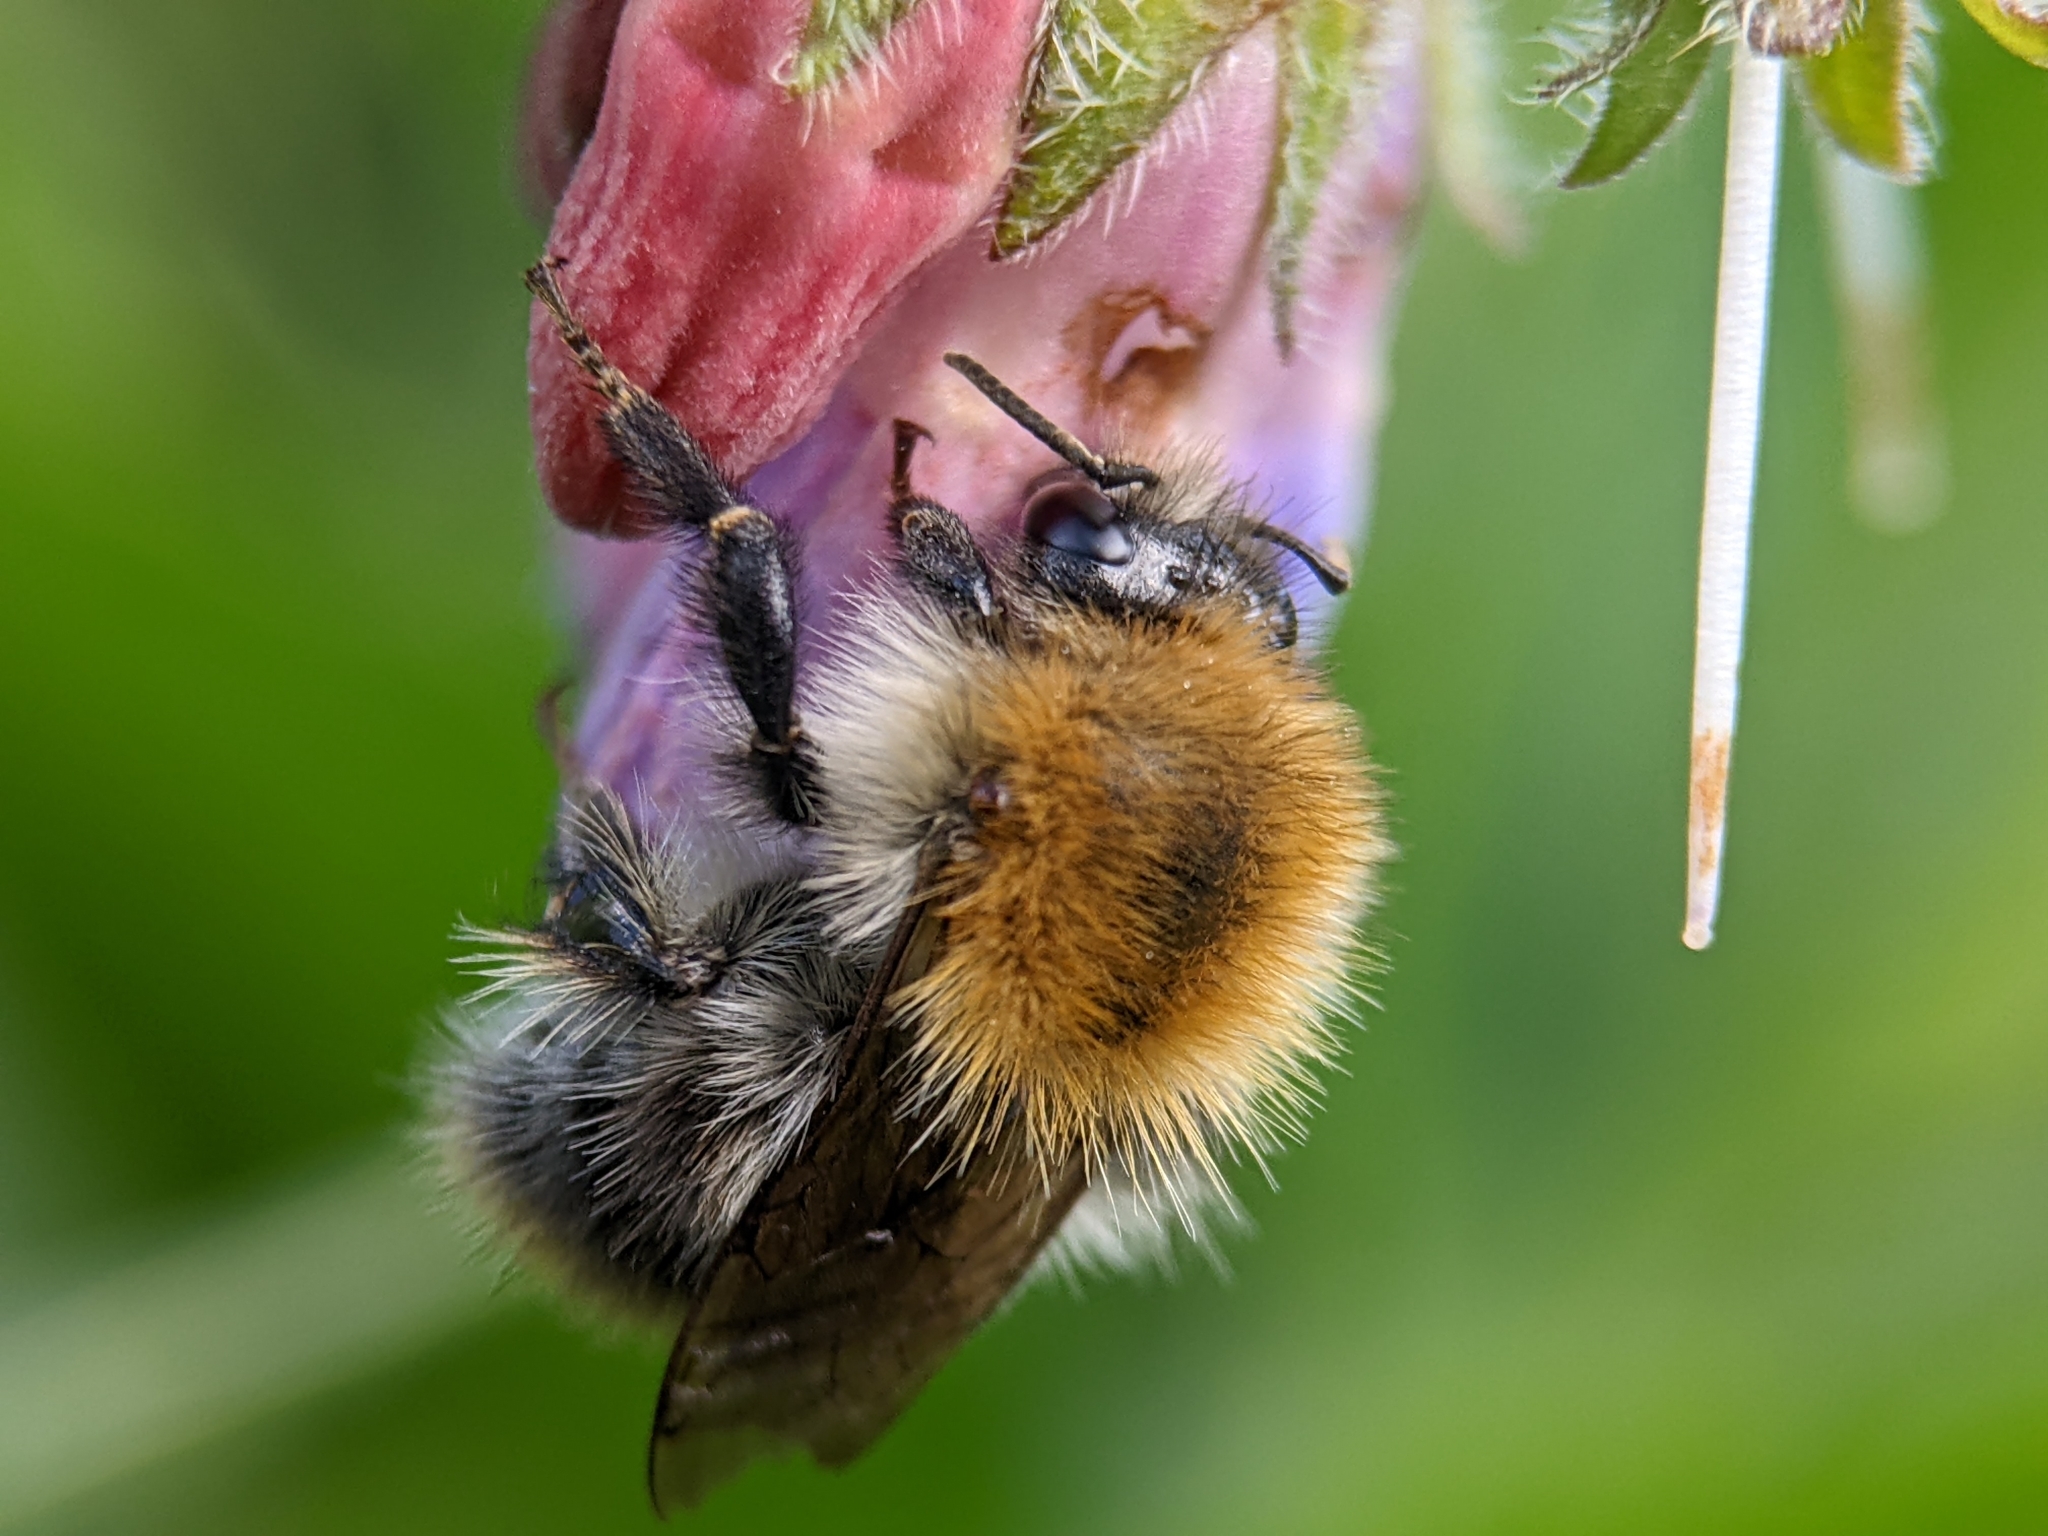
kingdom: Animalia
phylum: Arthropoda
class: Insecta
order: Hymenoptera
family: Apidae
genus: Bombus
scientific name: Bombus pascuorum
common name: Common carder bee
